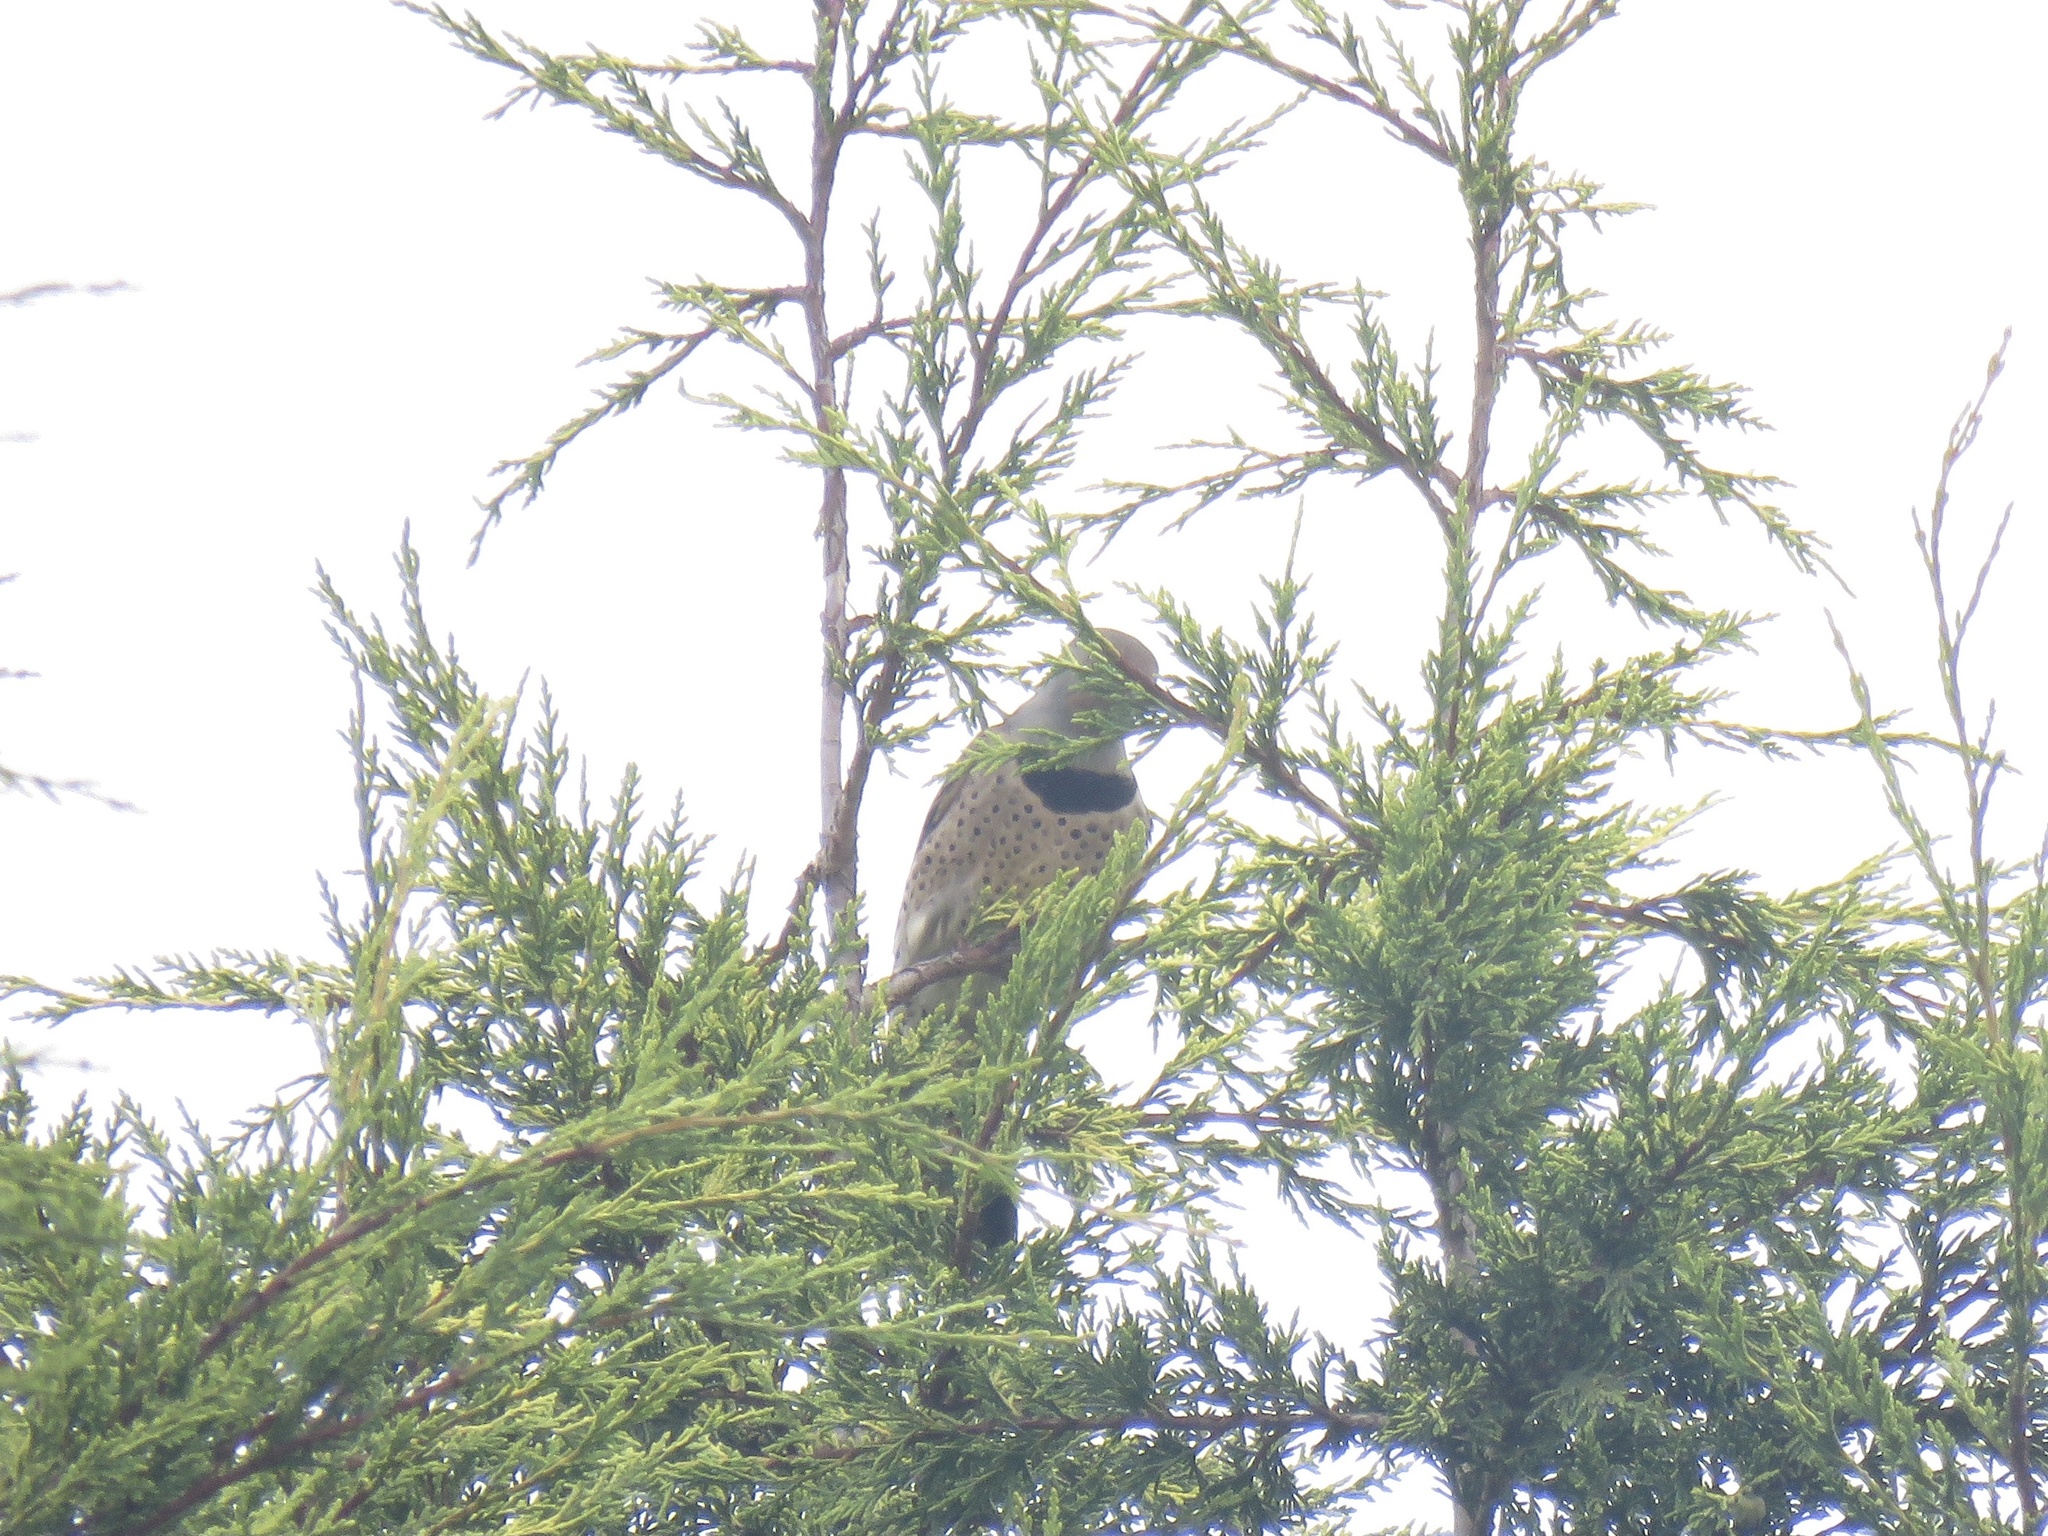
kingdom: Animalia
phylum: Chordata
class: Aves
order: Piciformes
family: Picidae
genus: Colaptes
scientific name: Colaptes auratus
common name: Northern flicker
